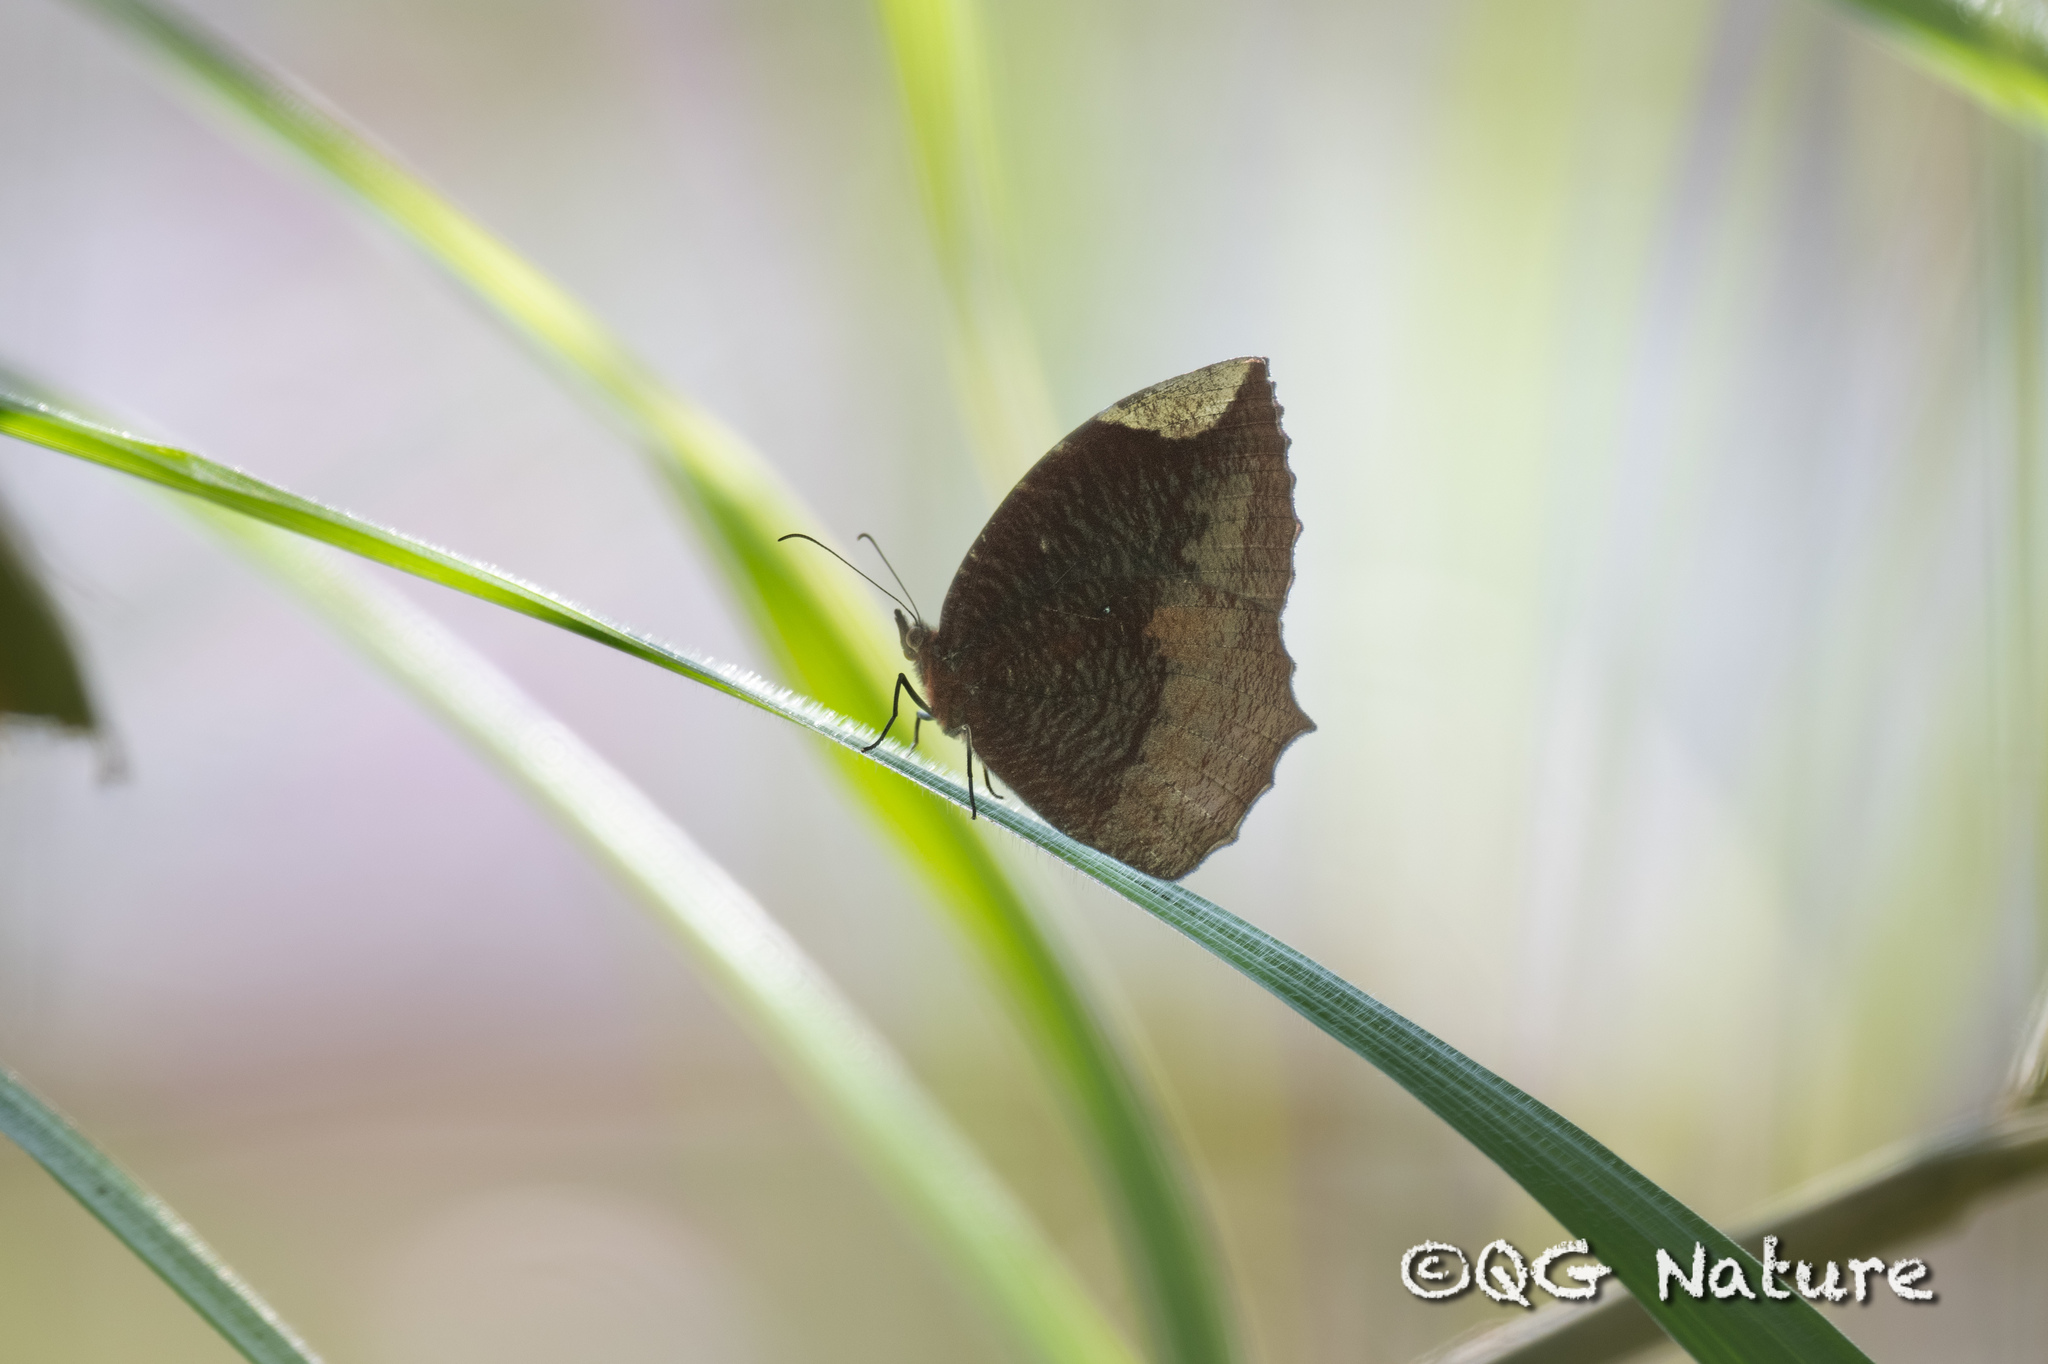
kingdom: Animalia
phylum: Arthropoda
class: Insecta
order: Lepidoptera
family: Nymphalidae
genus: Elymnias
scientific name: Elymnias hypermnestra
